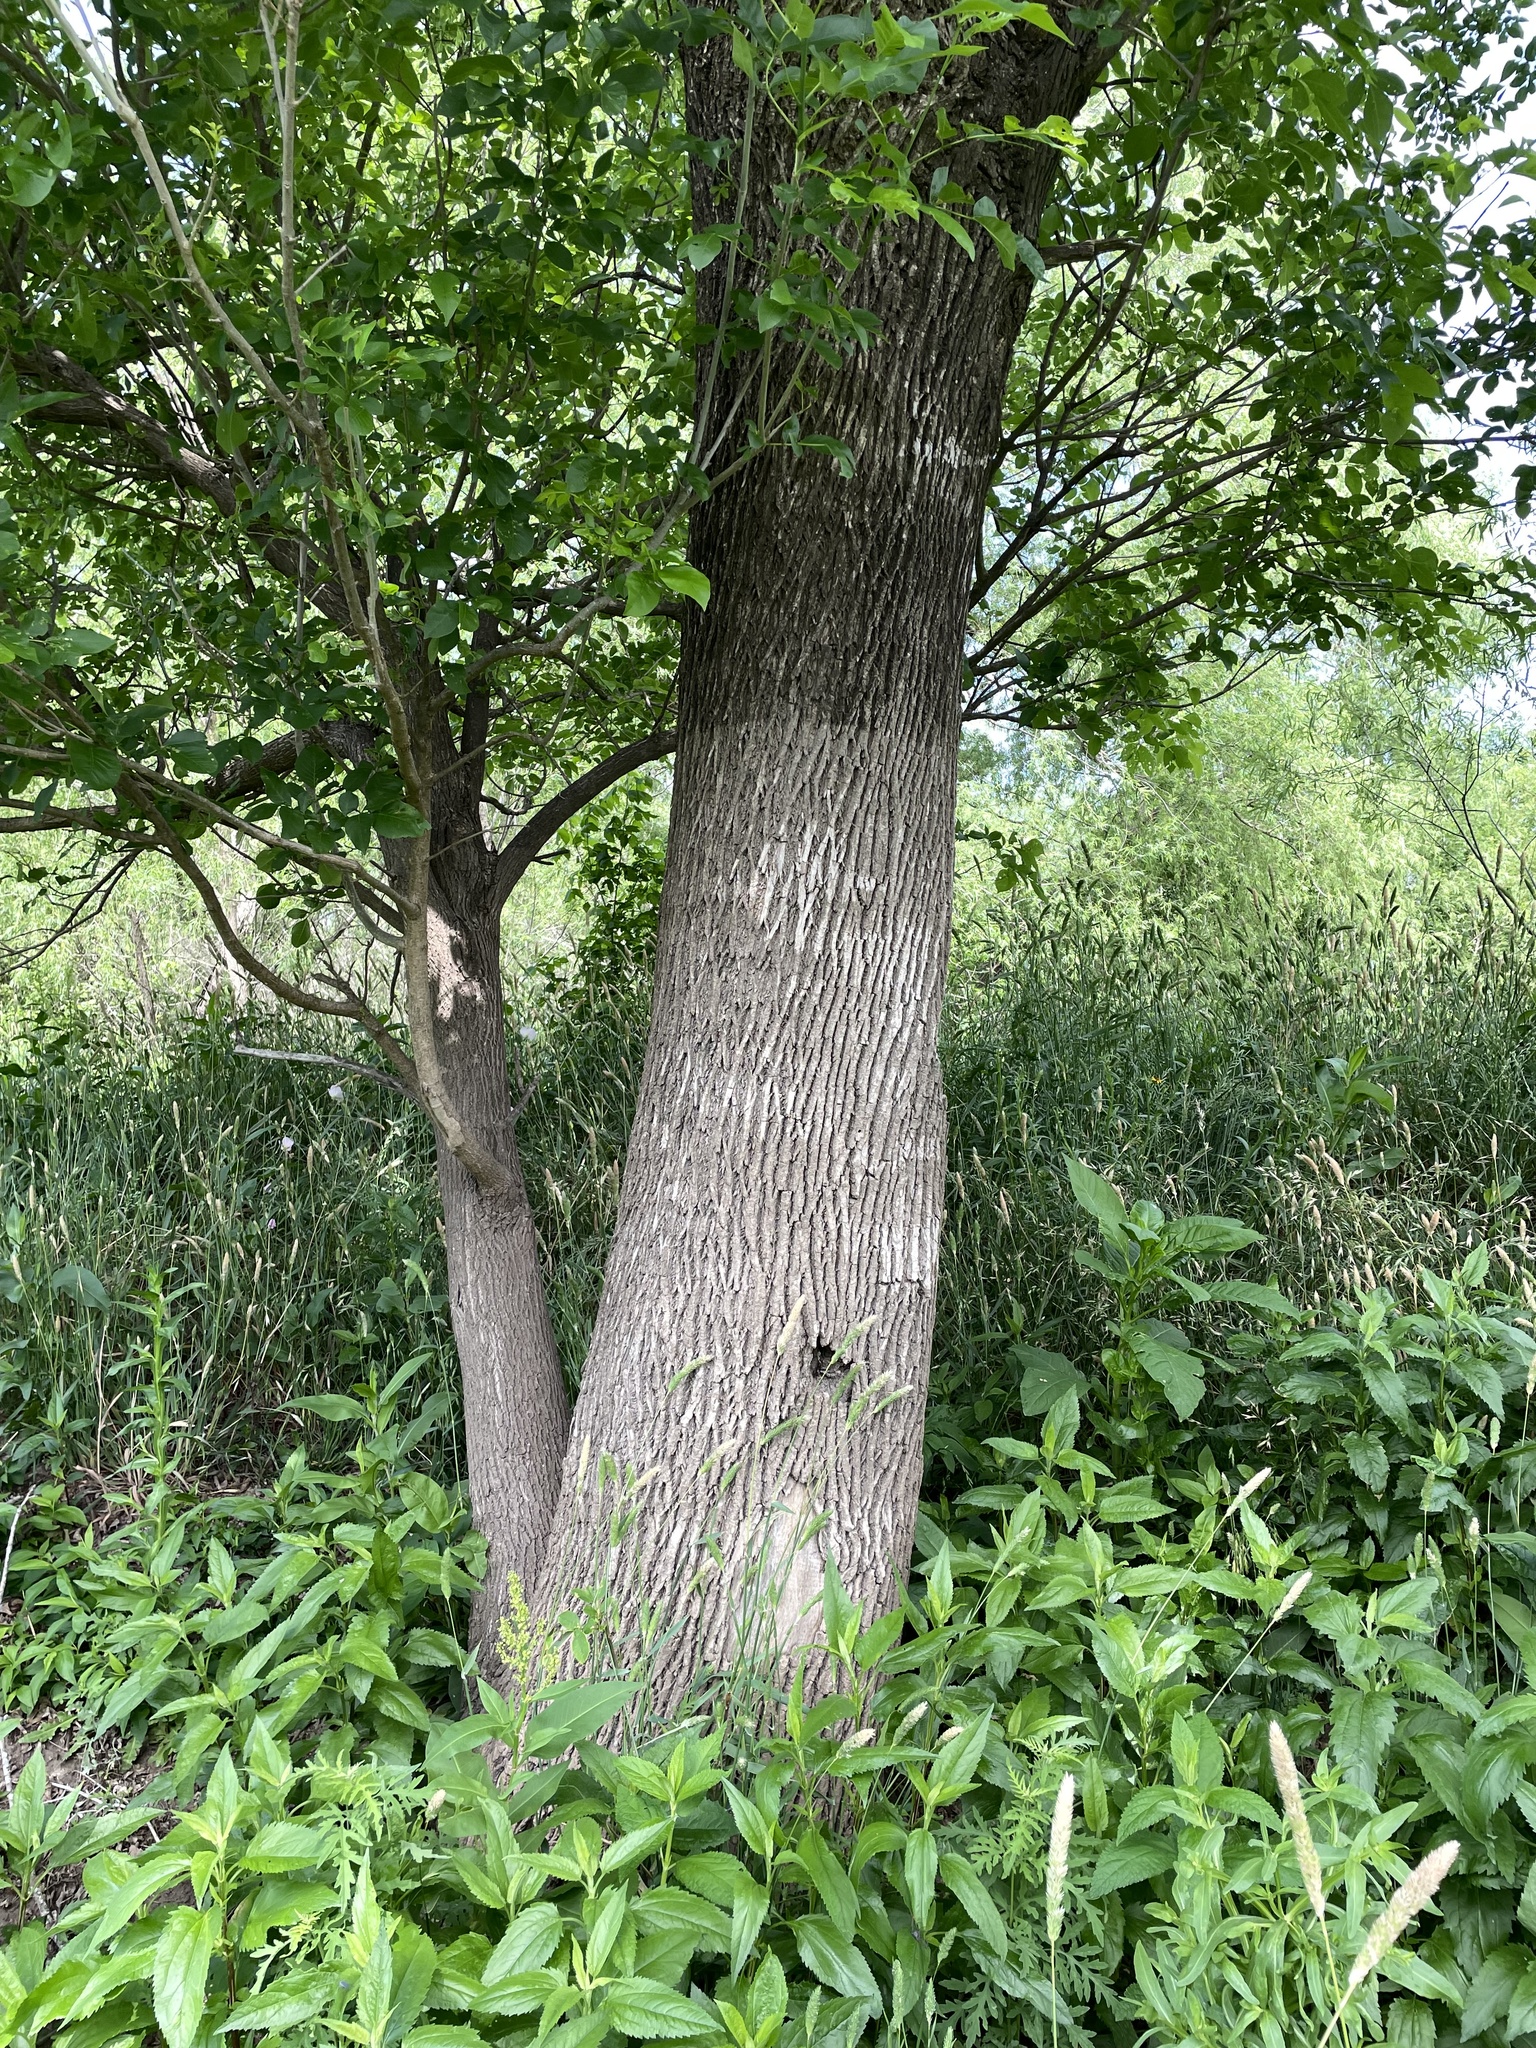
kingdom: Plantae
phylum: Tracheophyta
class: Magnoliopsida
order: Lamiales
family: Oleaceae
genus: Fraxinus
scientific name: Fraxinus pennsylvanica
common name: Green ash
